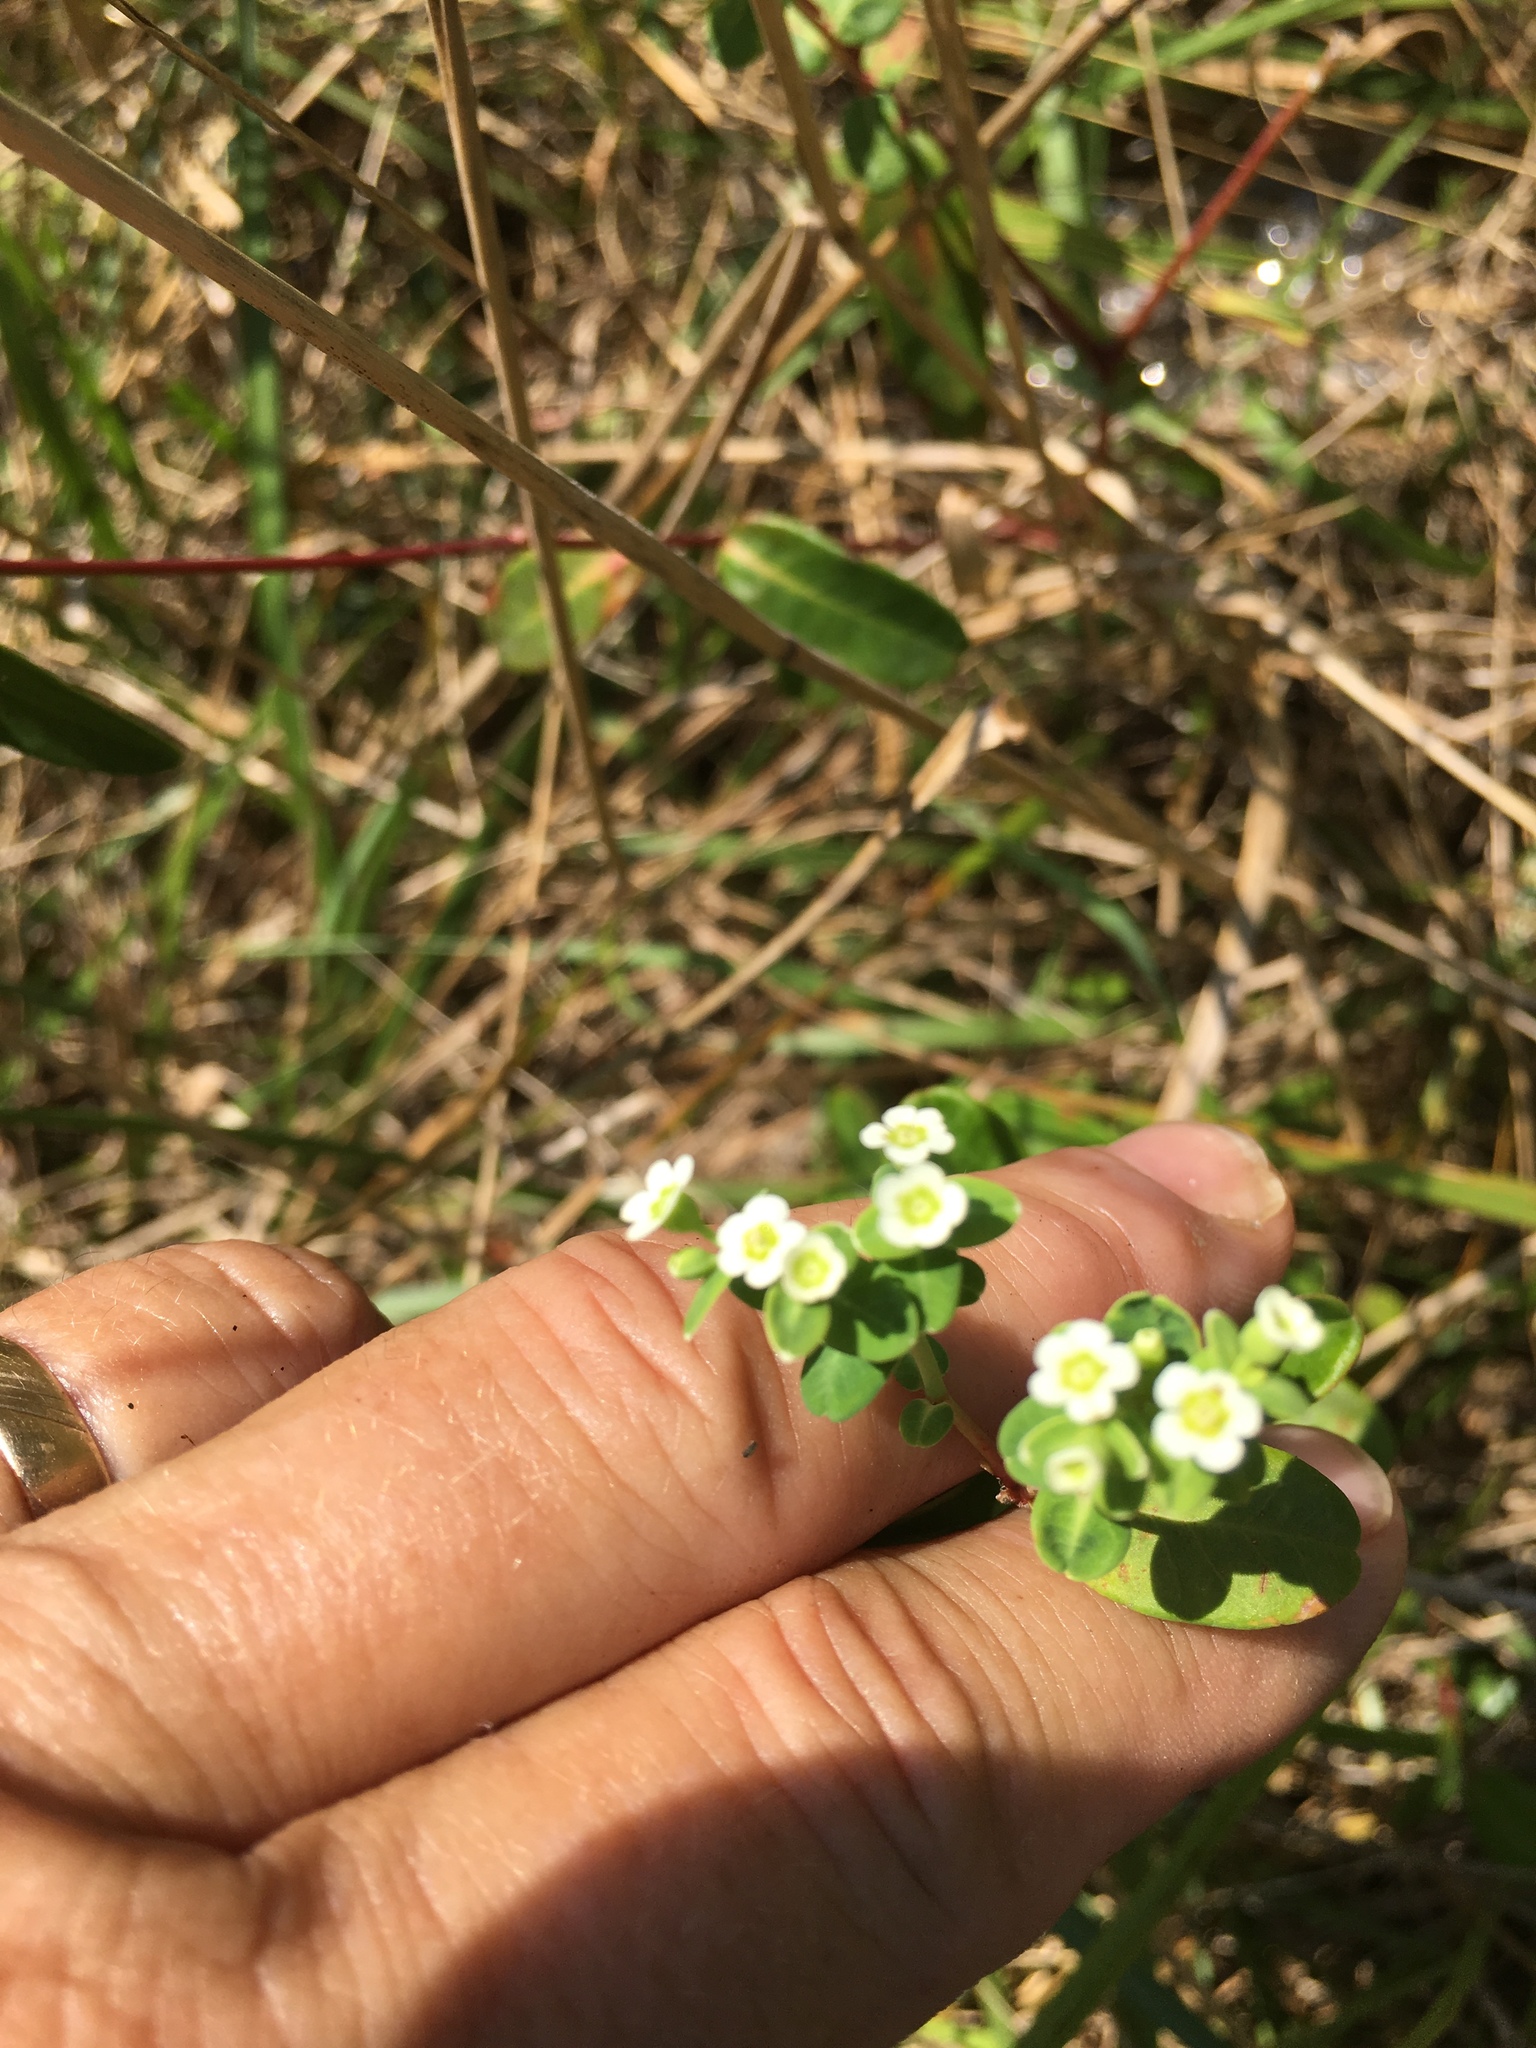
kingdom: Plantae
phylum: Tracheophyta
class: Magnoliopsida
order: Malpighiales
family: Euphorbiaceae
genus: Euphorbia
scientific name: Euphorbia corollata
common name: Flowering spurge
